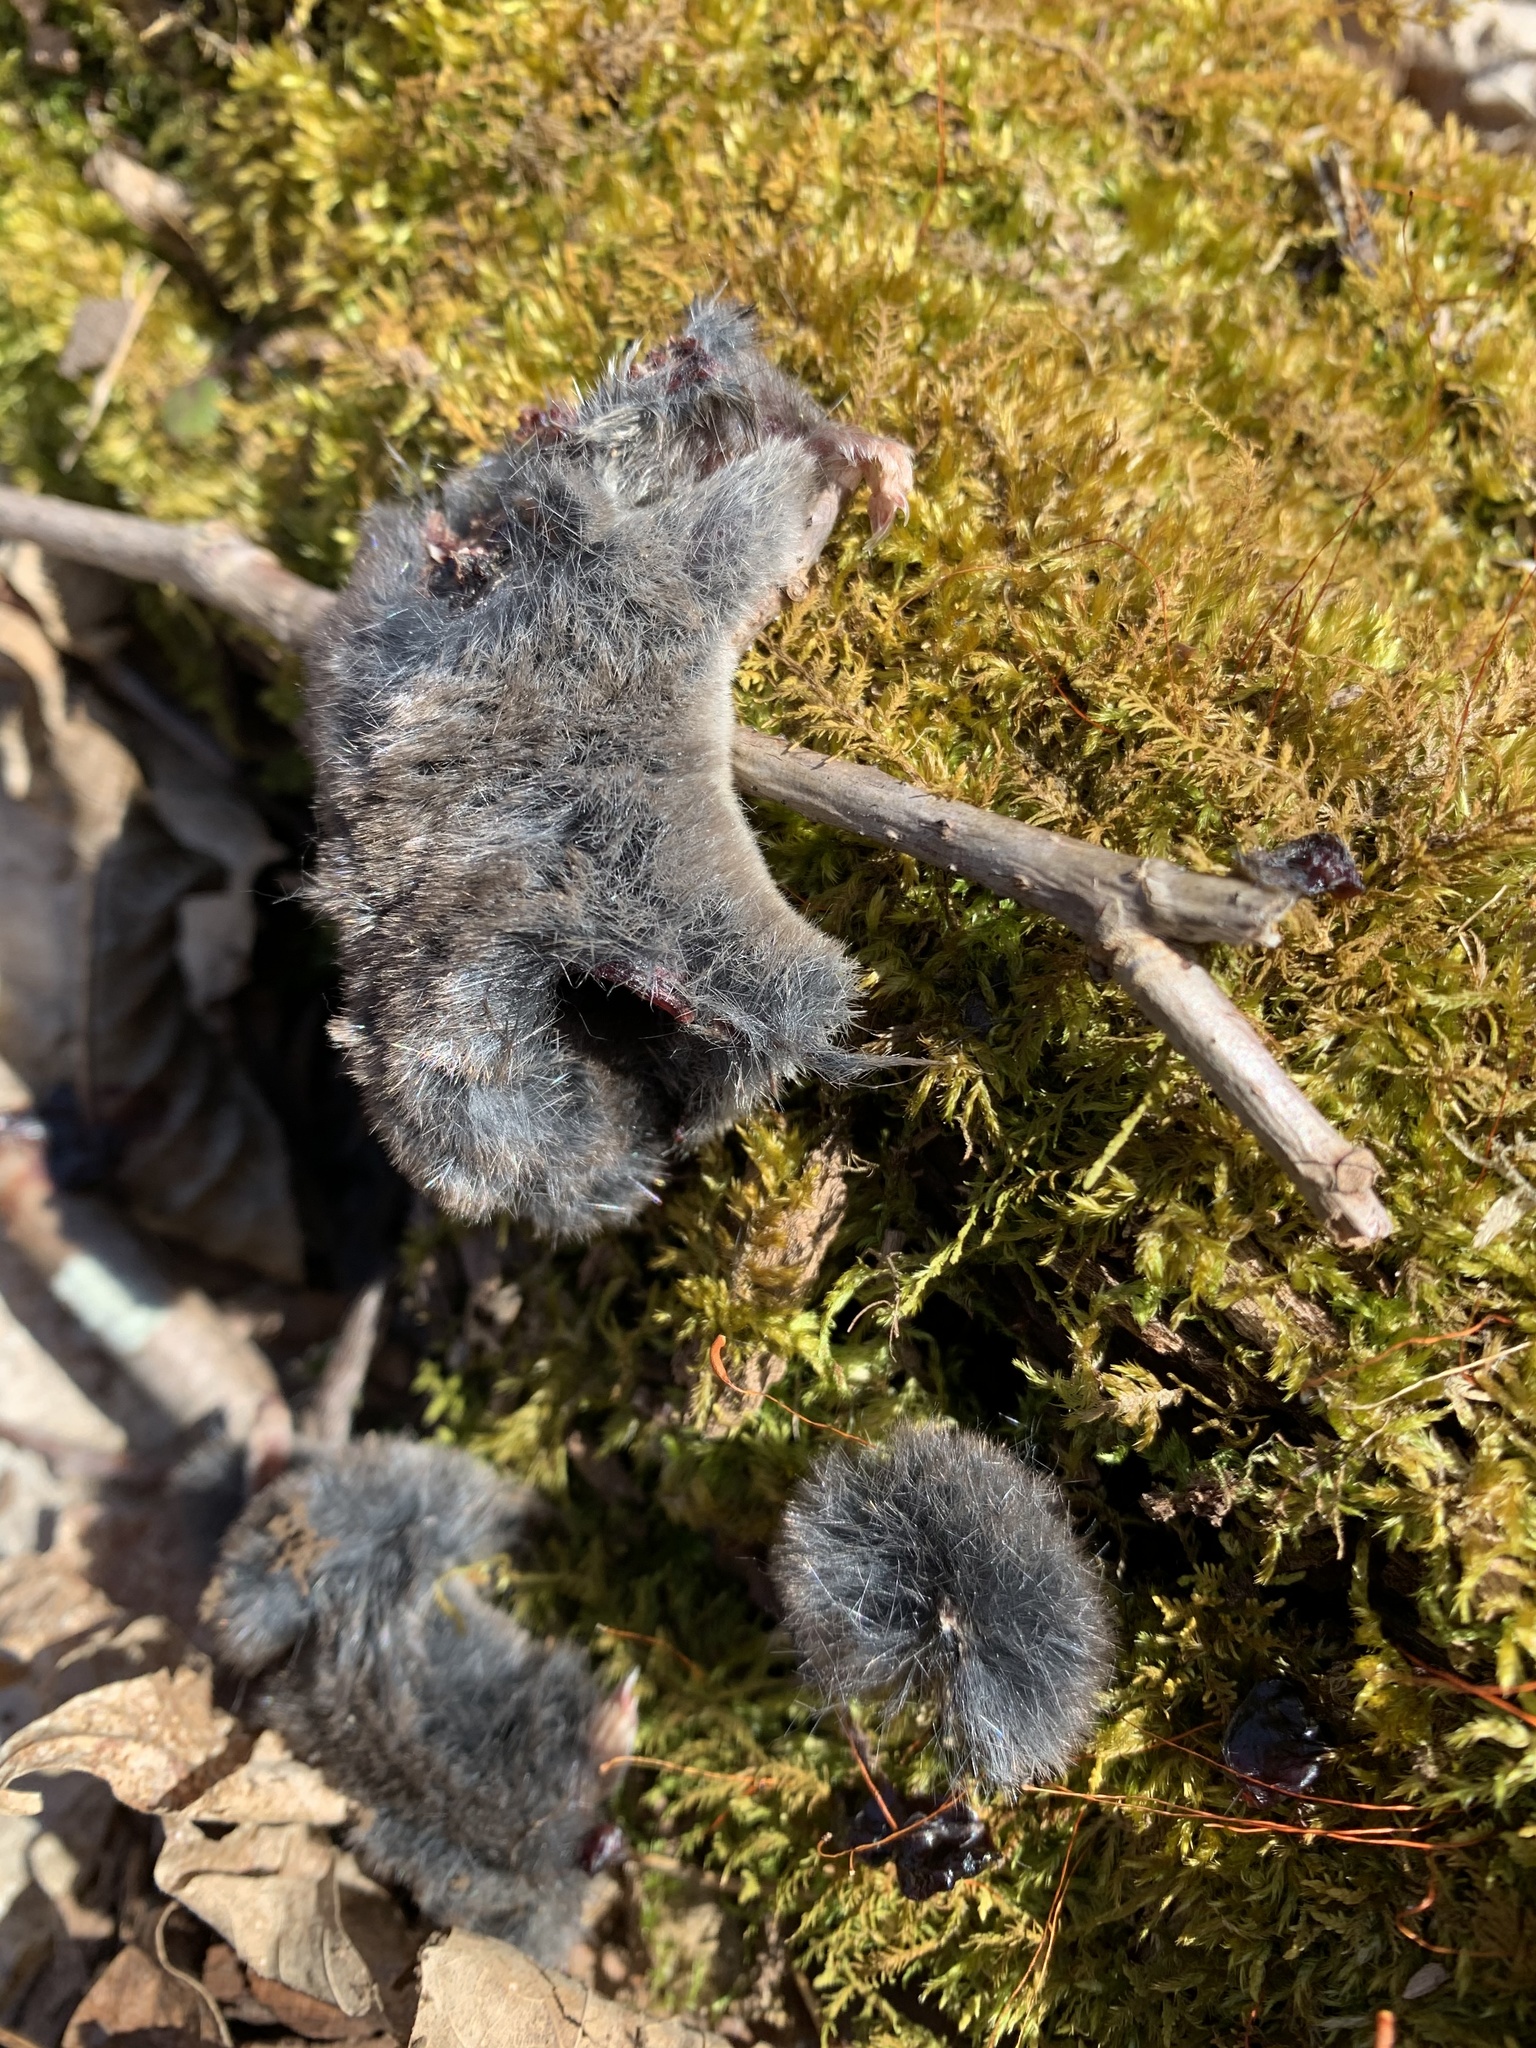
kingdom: Animalia
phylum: Chordata
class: Mammalia
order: Soricomorpha
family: Soricidae
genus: Blarina
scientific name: Blarina brevicauda
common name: Northern short-tailed shrew
